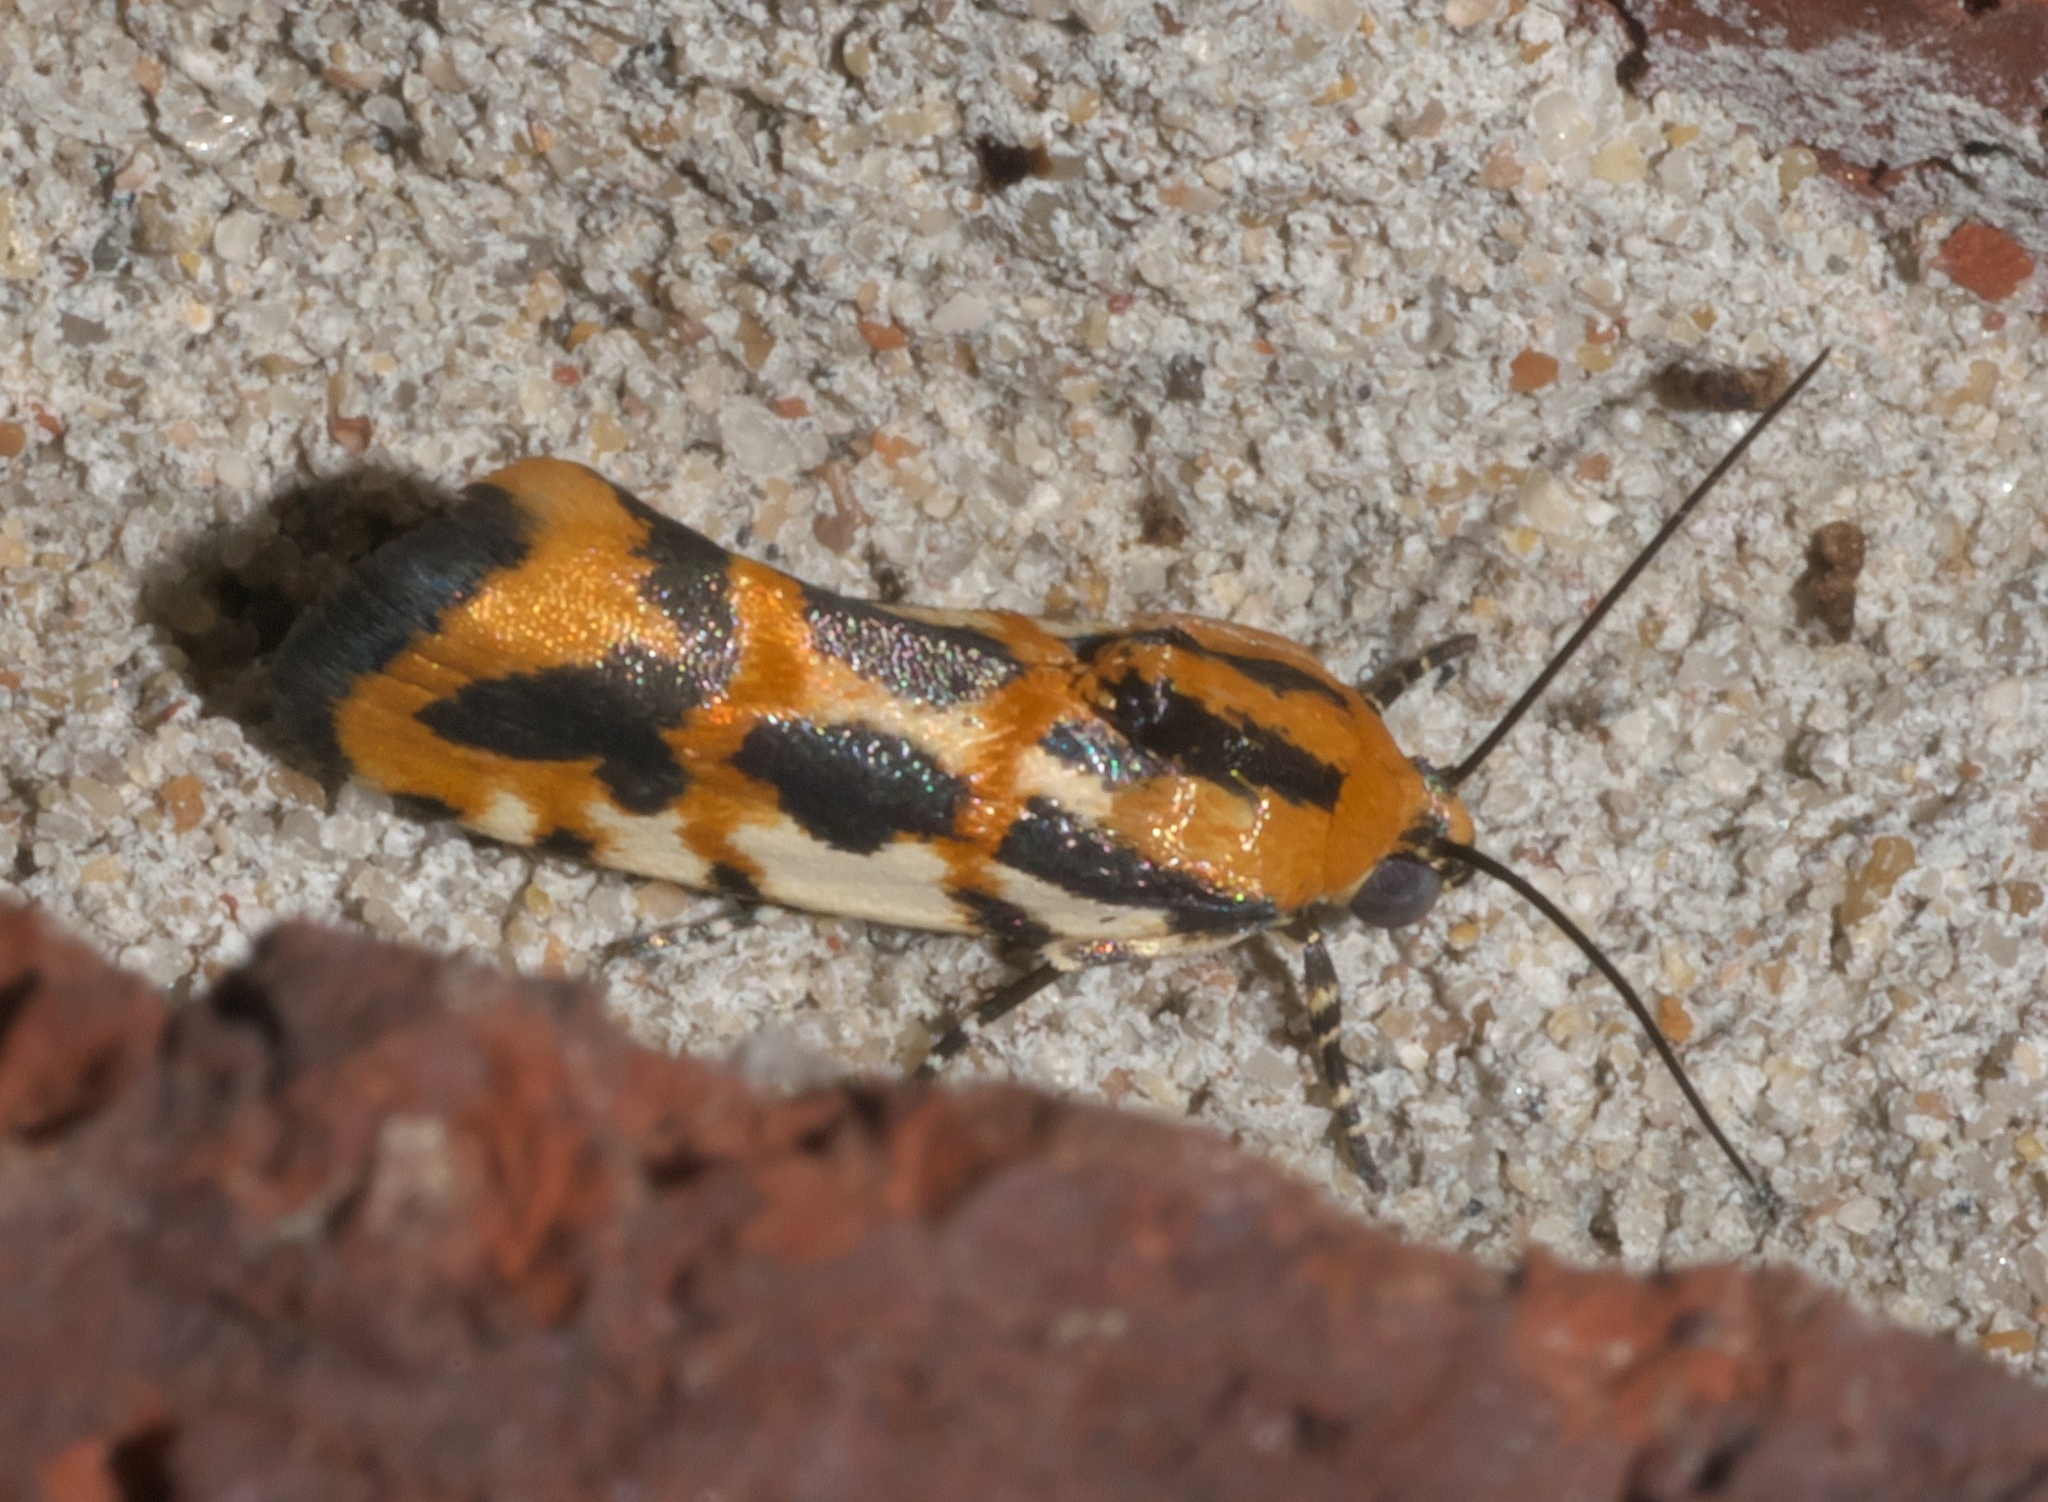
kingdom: Animalia
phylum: Arthropoda
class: Insecta
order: Lepidoptera
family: Noctuidae
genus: Acontia
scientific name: Acontia leo
